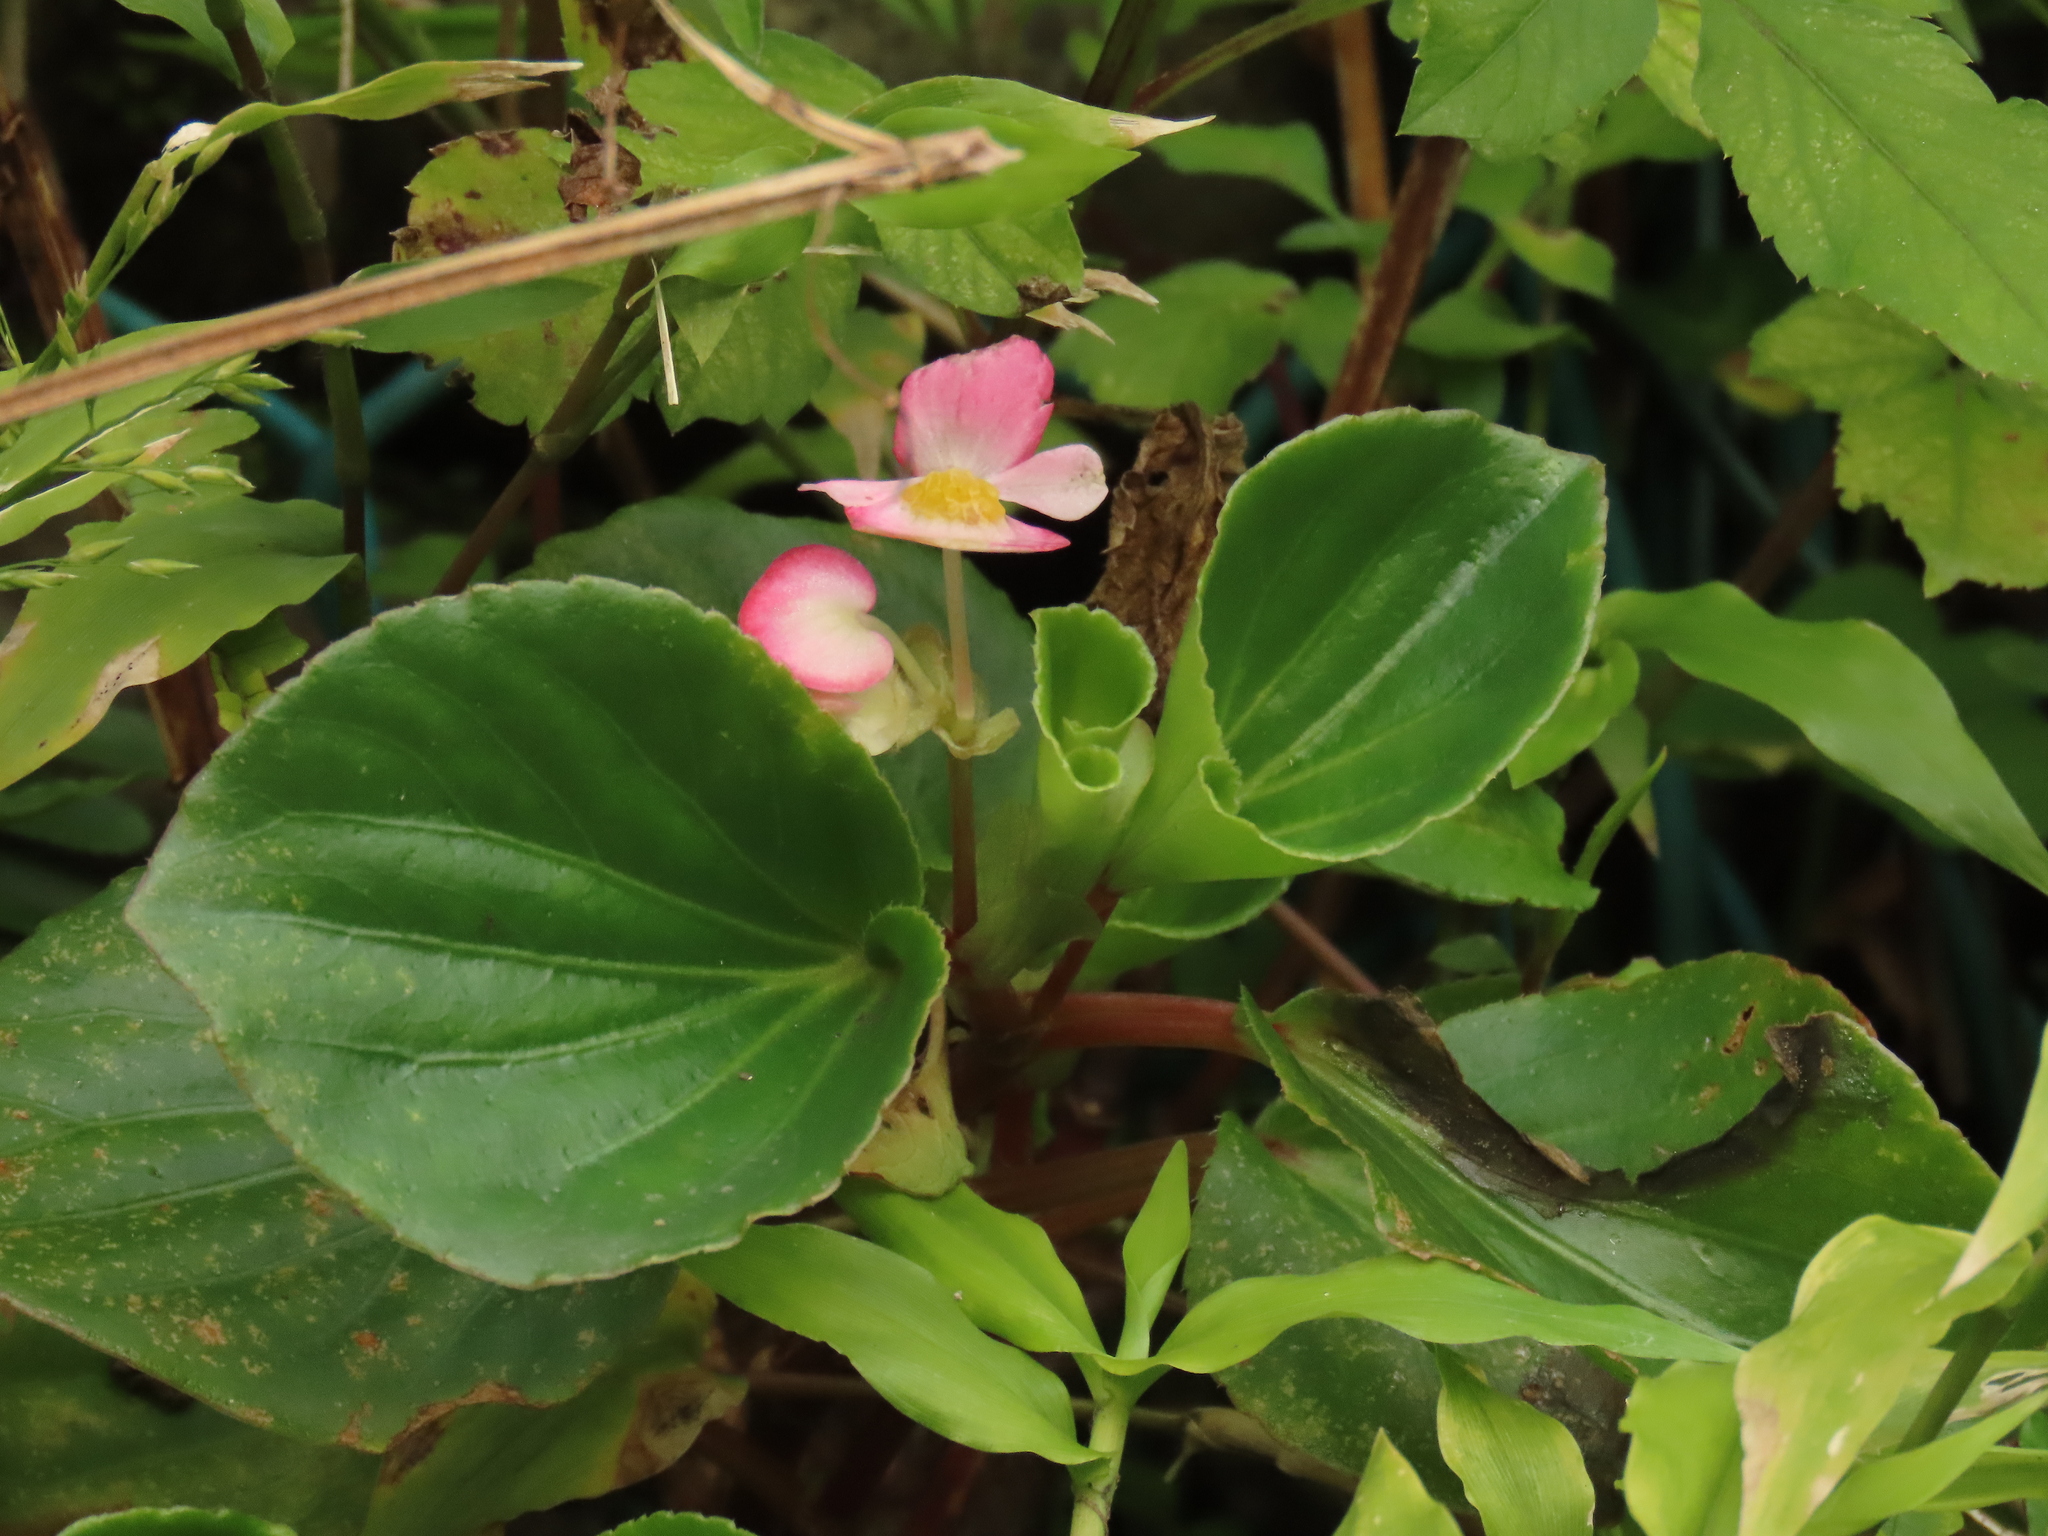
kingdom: Plantae
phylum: Tracheophyta
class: Magnoliopsida
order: Cucurbitales
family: Begoniaceae
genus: Begonia
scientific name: Begonia cucullata
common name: Clubbed begonia
